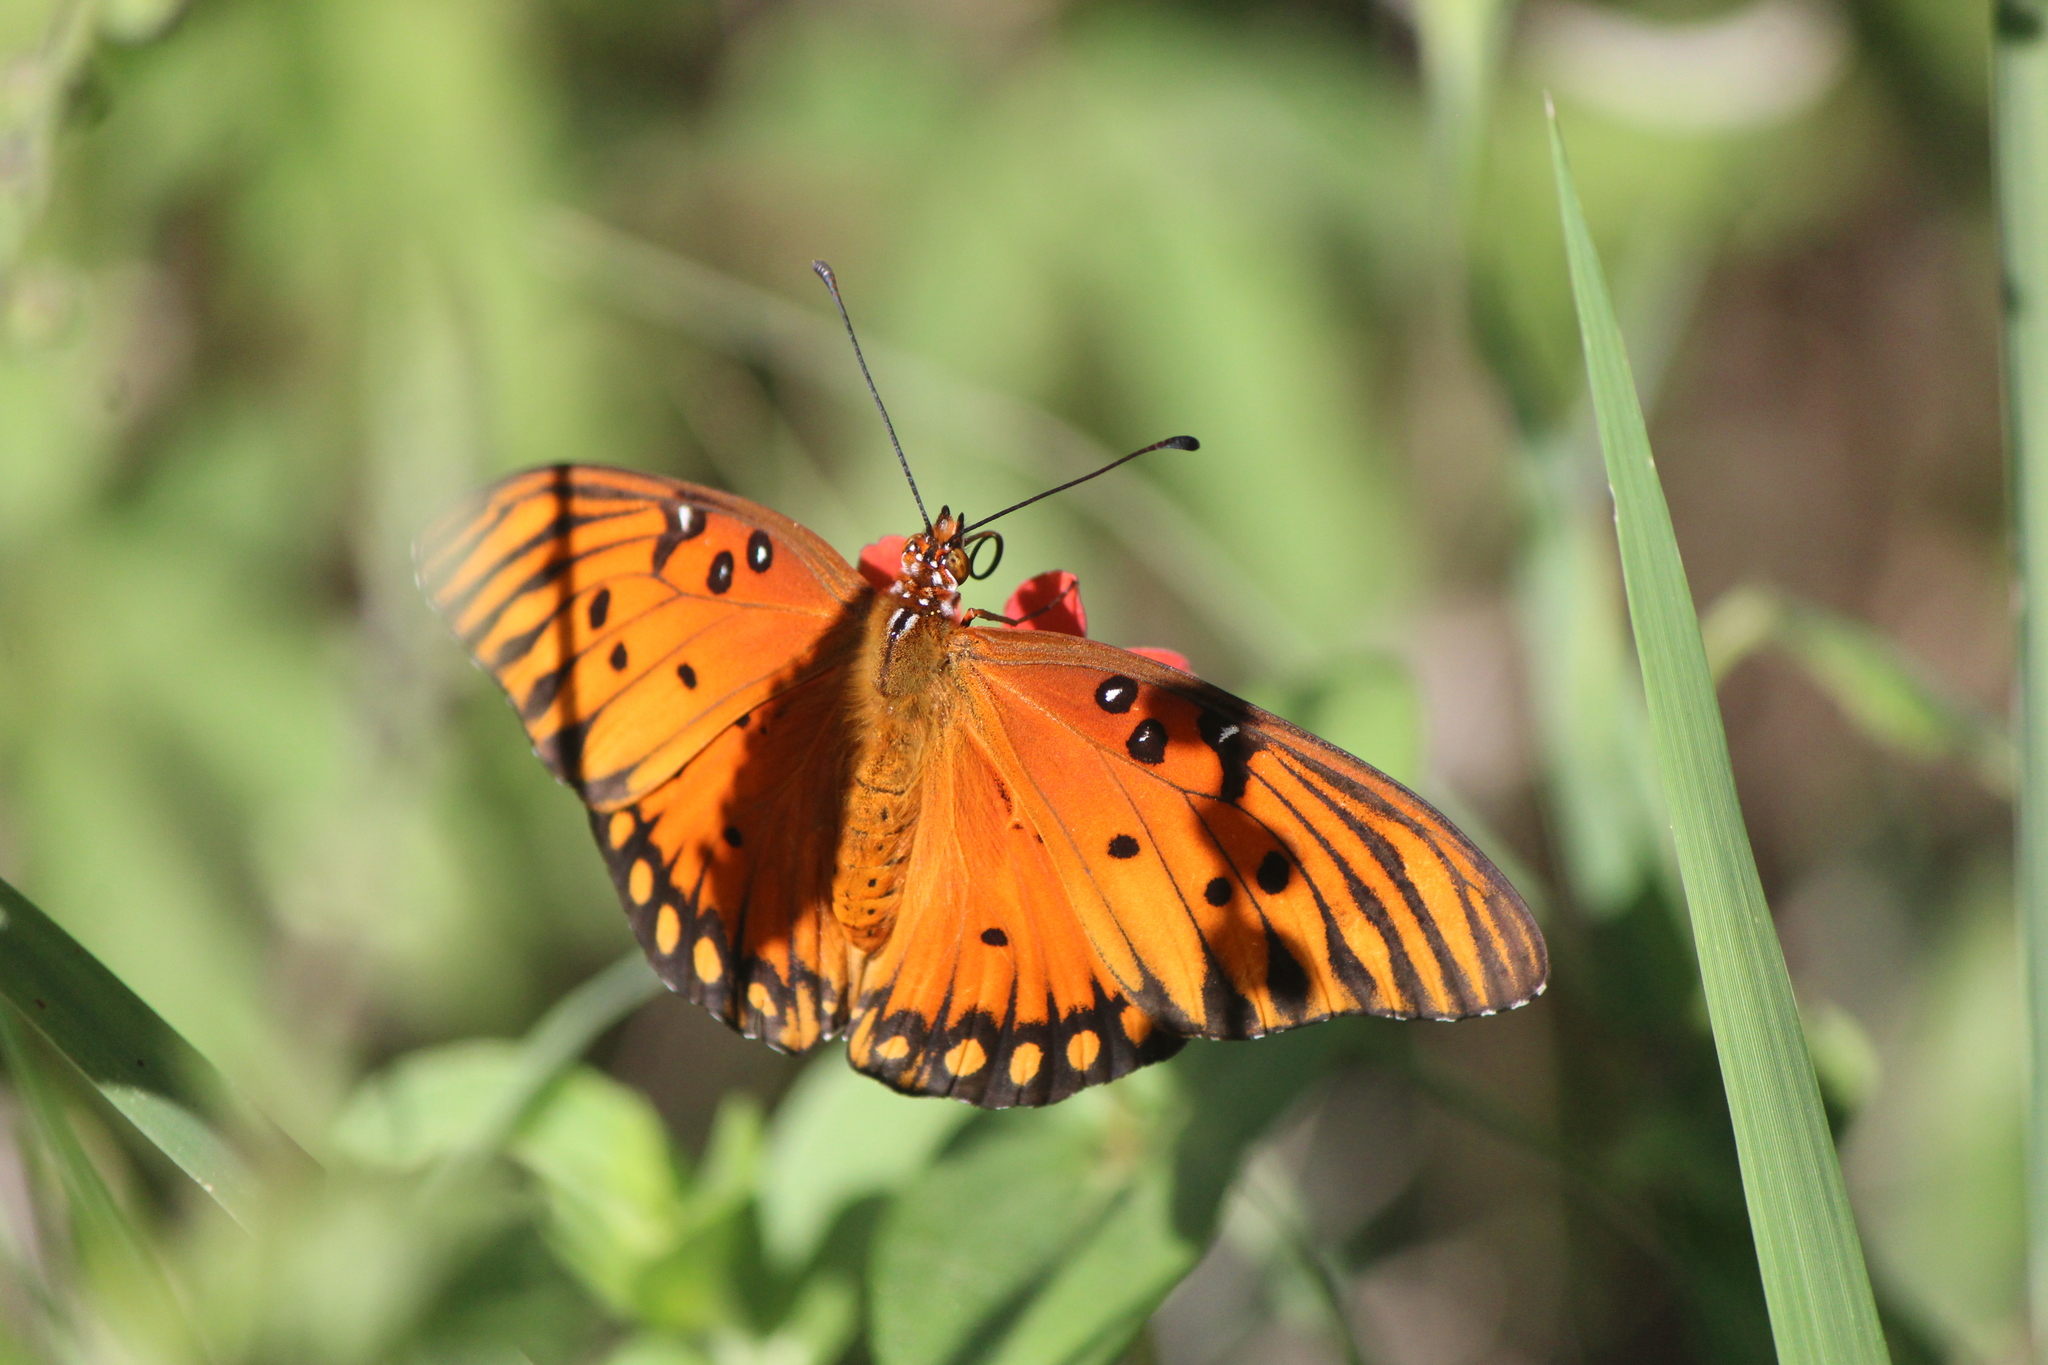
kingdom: Animalia
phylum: Arthropoda
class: Insecta
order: Lepidoptera
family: Nymphalidae
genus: Dione
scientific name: Dione vanillae
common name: Gulf fritillary
